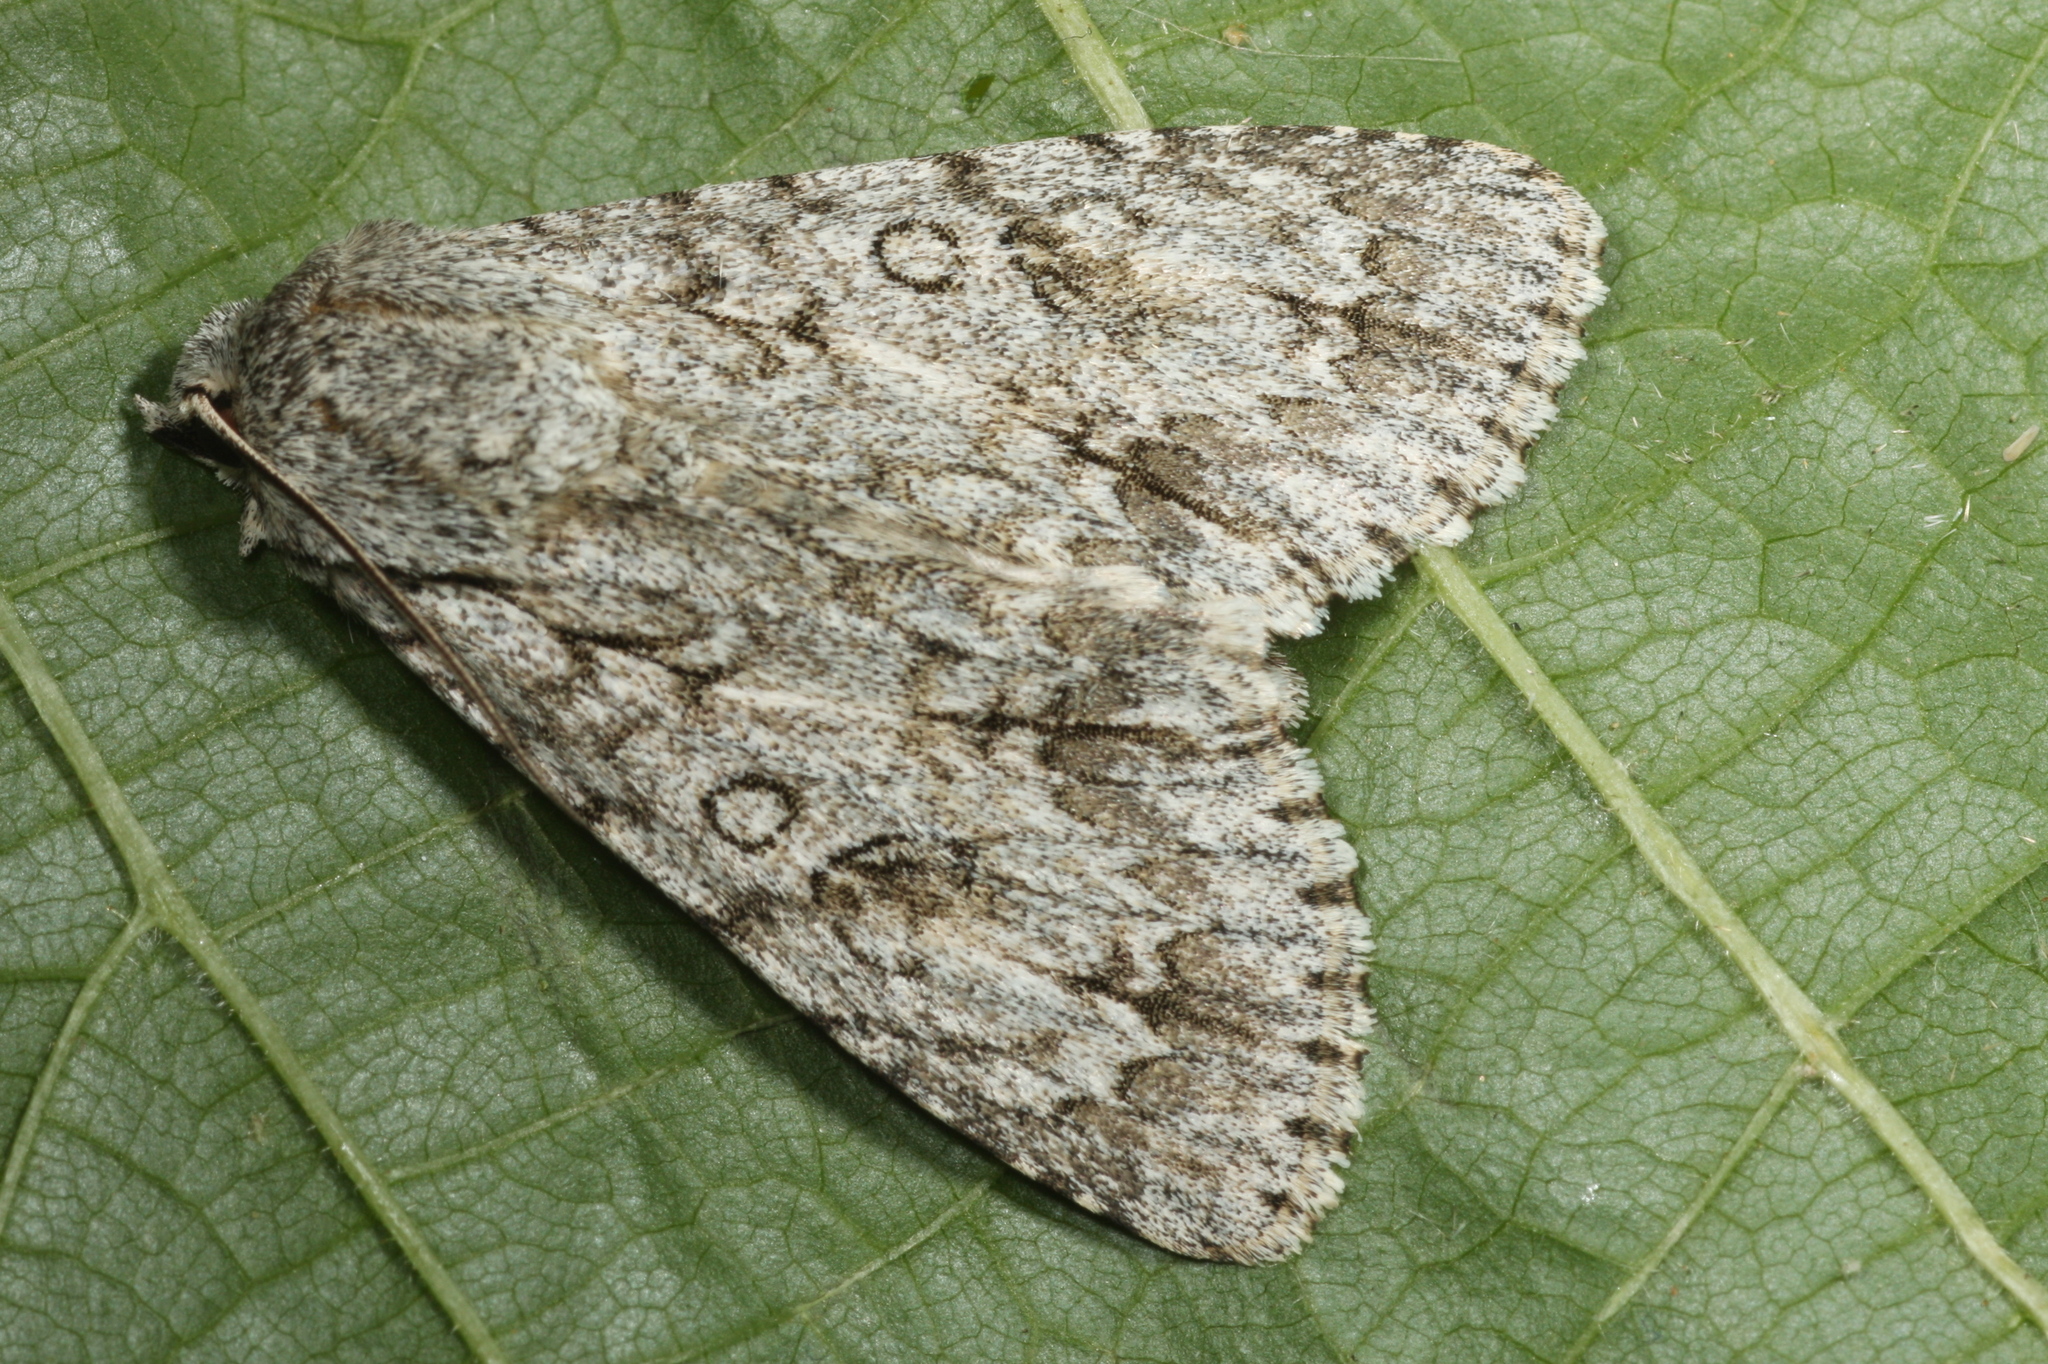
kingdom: Animalia
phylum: Arthropoda
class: Insecta
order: Lepidoptera
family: Noctuidae
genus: Acronicta
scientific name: Acronicta aceris
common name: Sycamore
